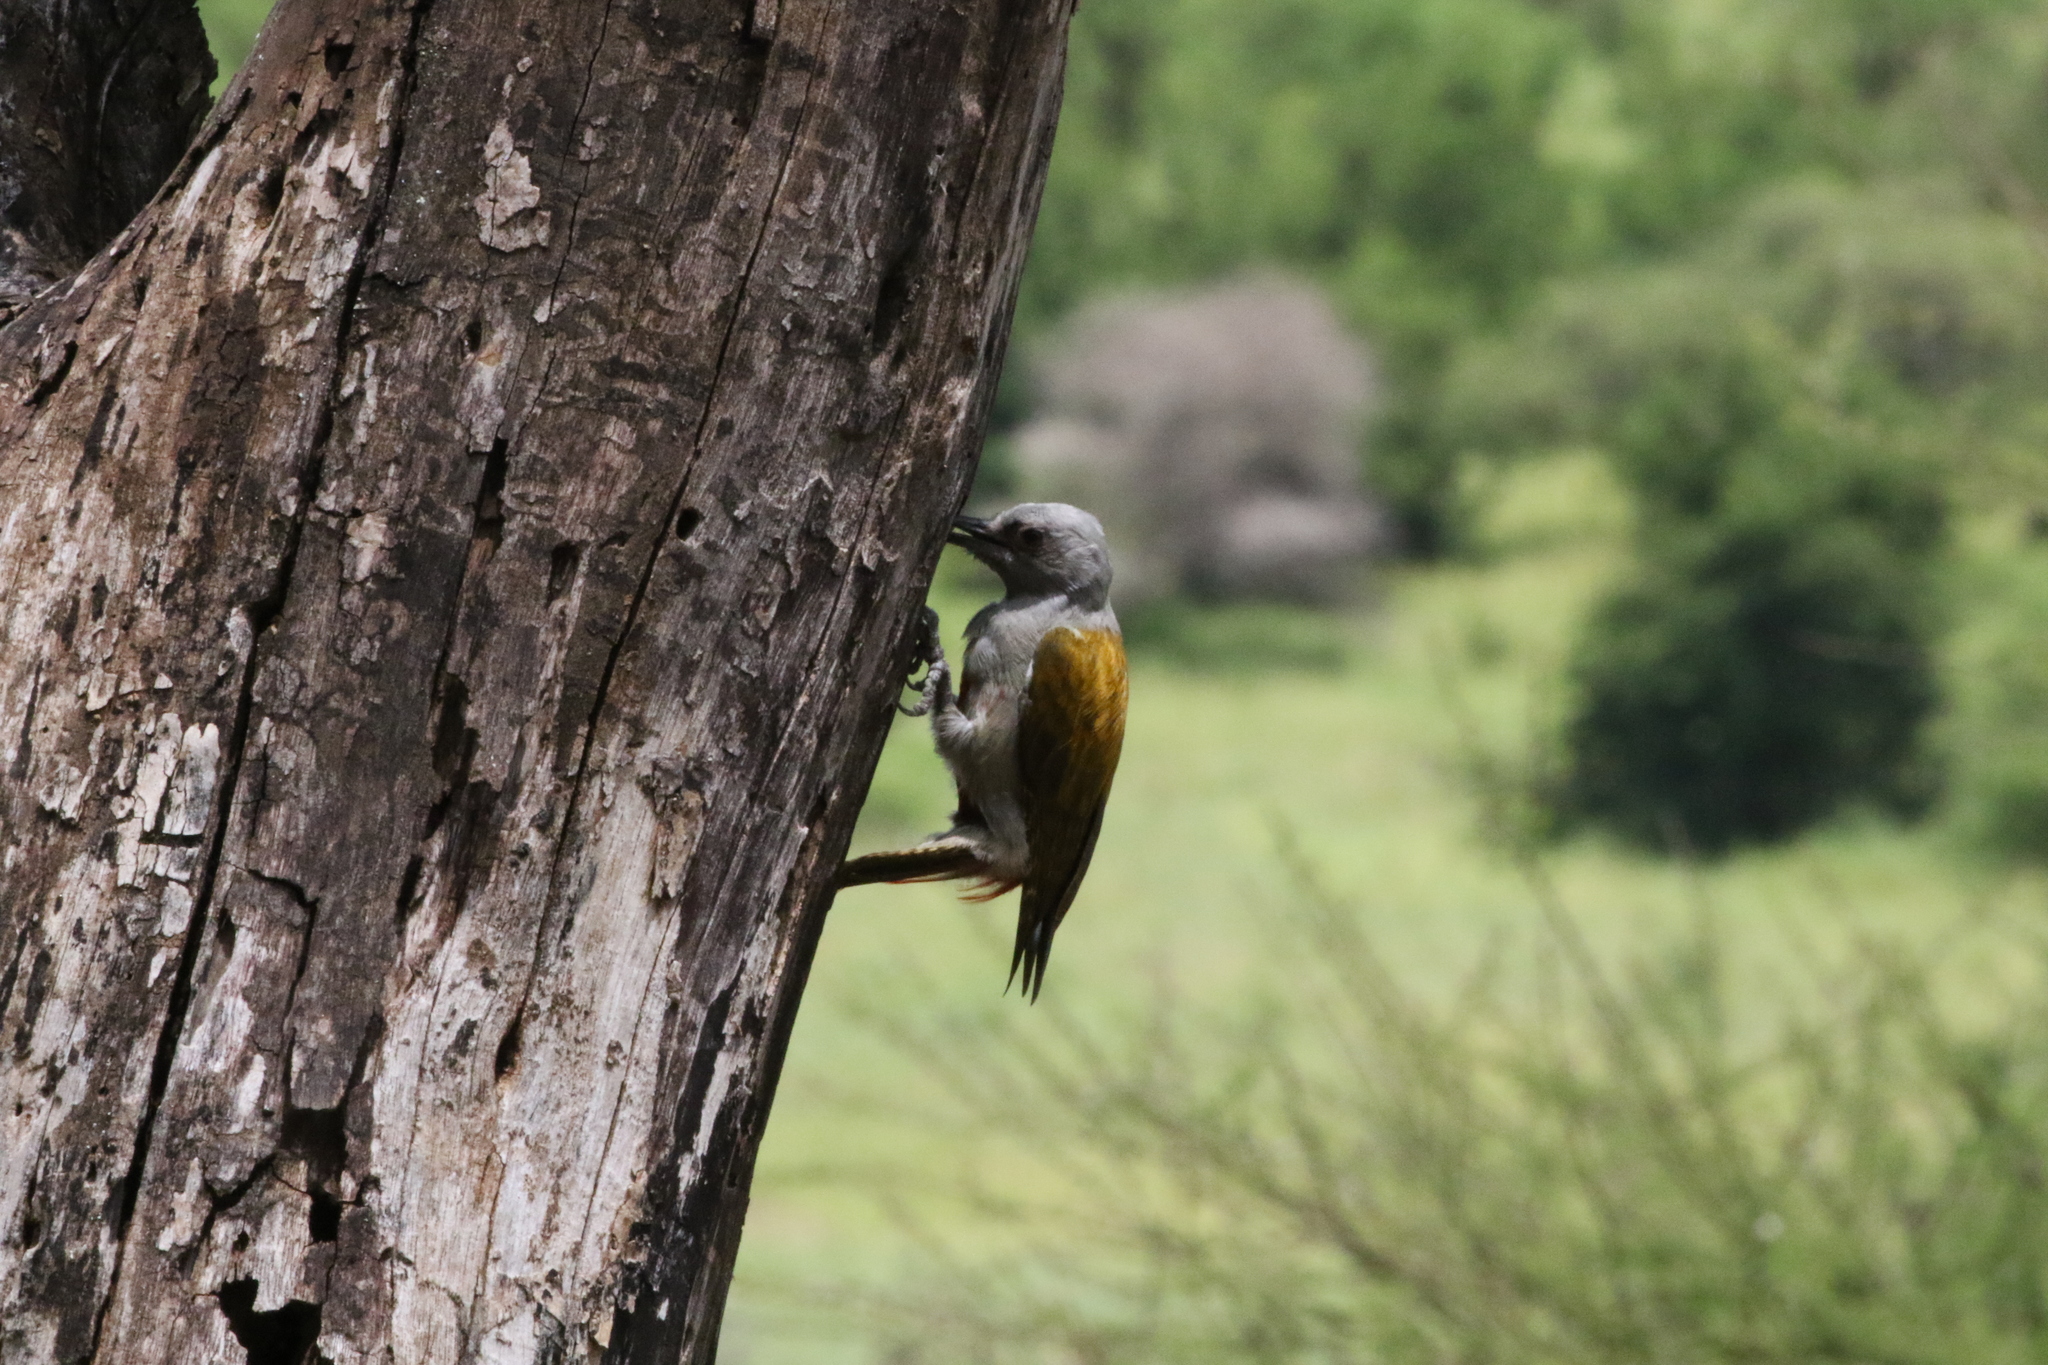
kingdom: Animalia
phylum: Chordata
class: Aves
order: Piciformes
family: Picidae
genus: Dendropicos
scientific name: Dendropicos spodocephalus
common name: Eastern grey woodpecker
